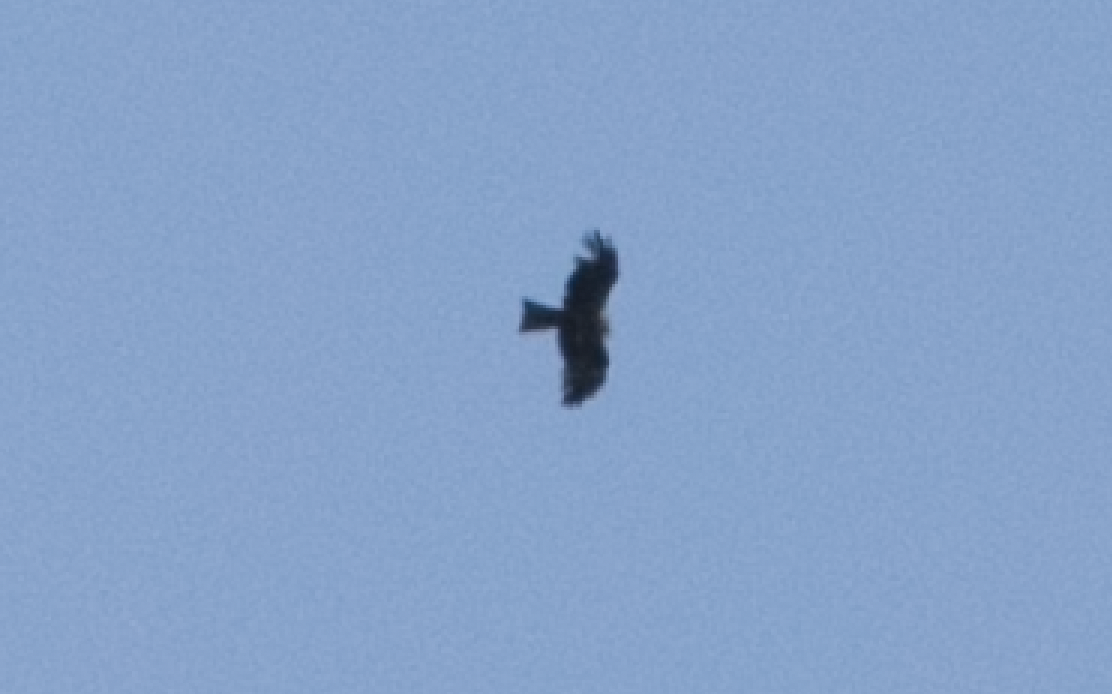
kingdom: Animalia
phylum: Chordata
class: Aves
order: Accipitriformes
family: Accipitridae
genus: Milvus
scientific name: Milvus migrans
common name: Black kite
